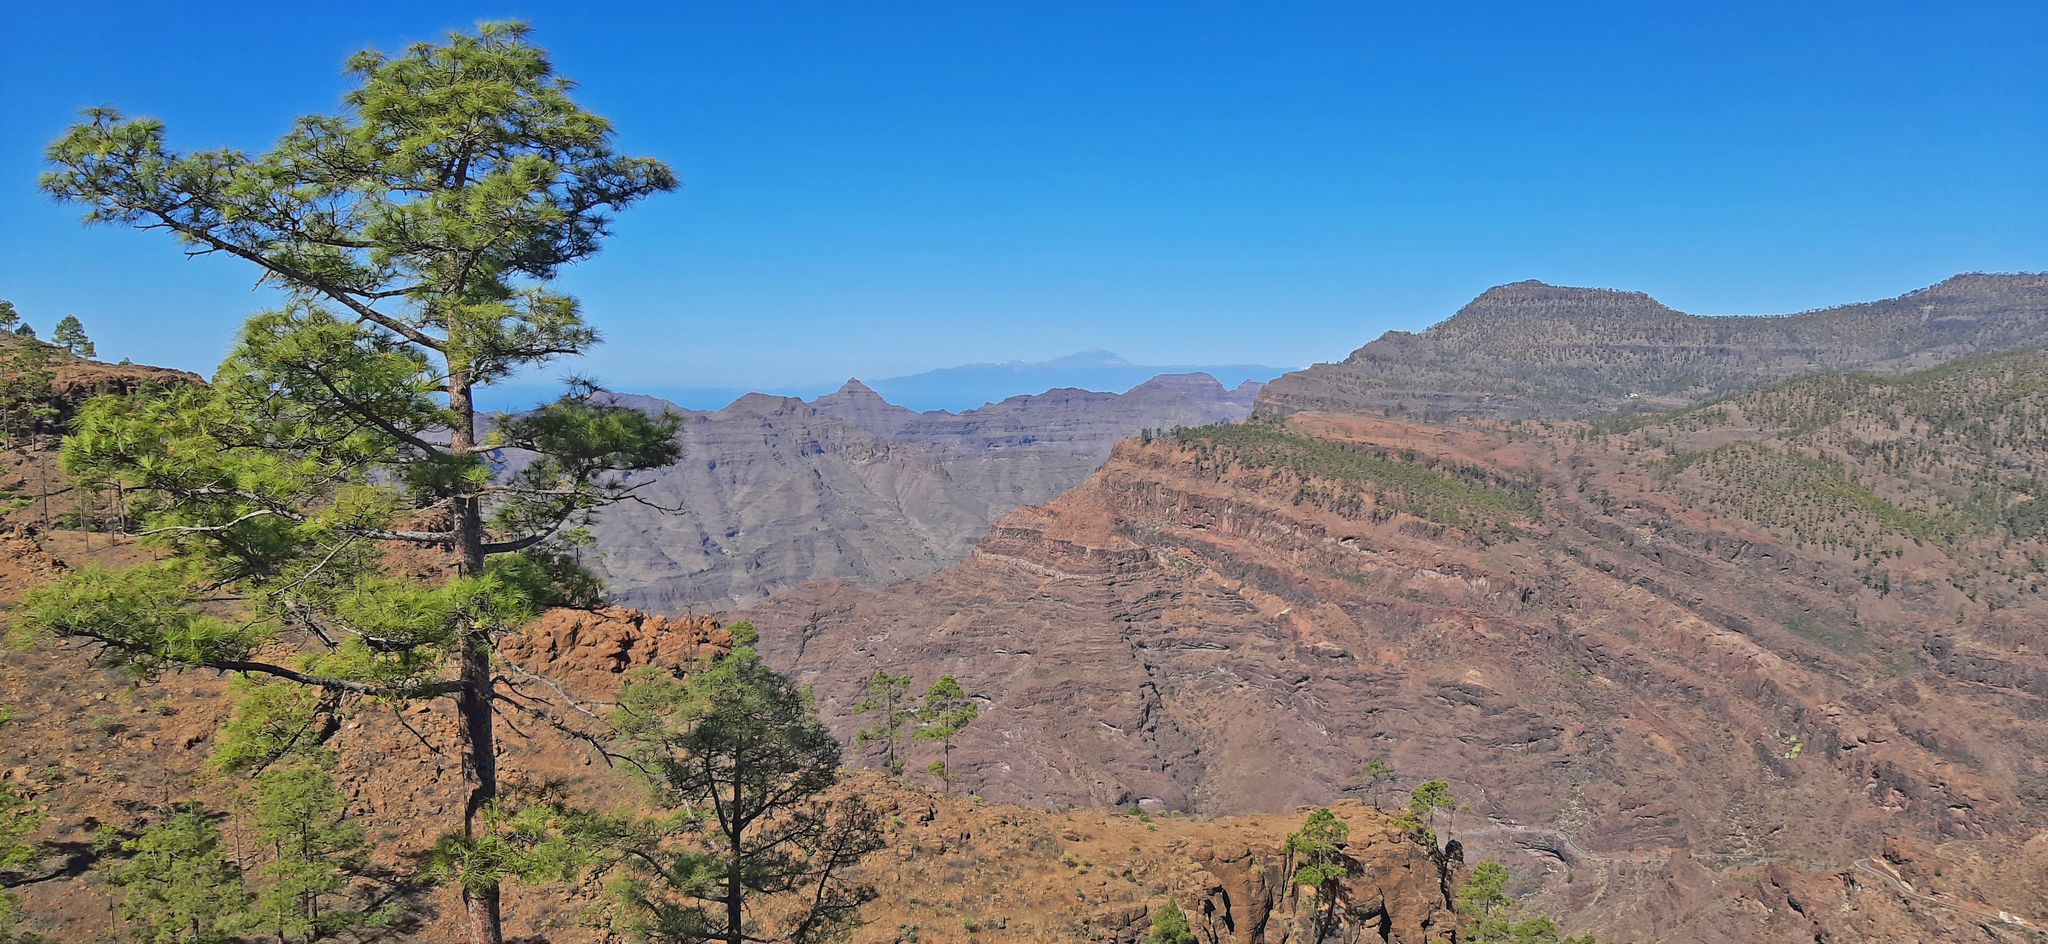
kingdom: Plantae
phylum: Tracheophyta
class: Pinopsida
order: Pinales
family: Pinaceae
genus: Pinus
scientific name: Pinus canariensis
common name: Canary islands pine
